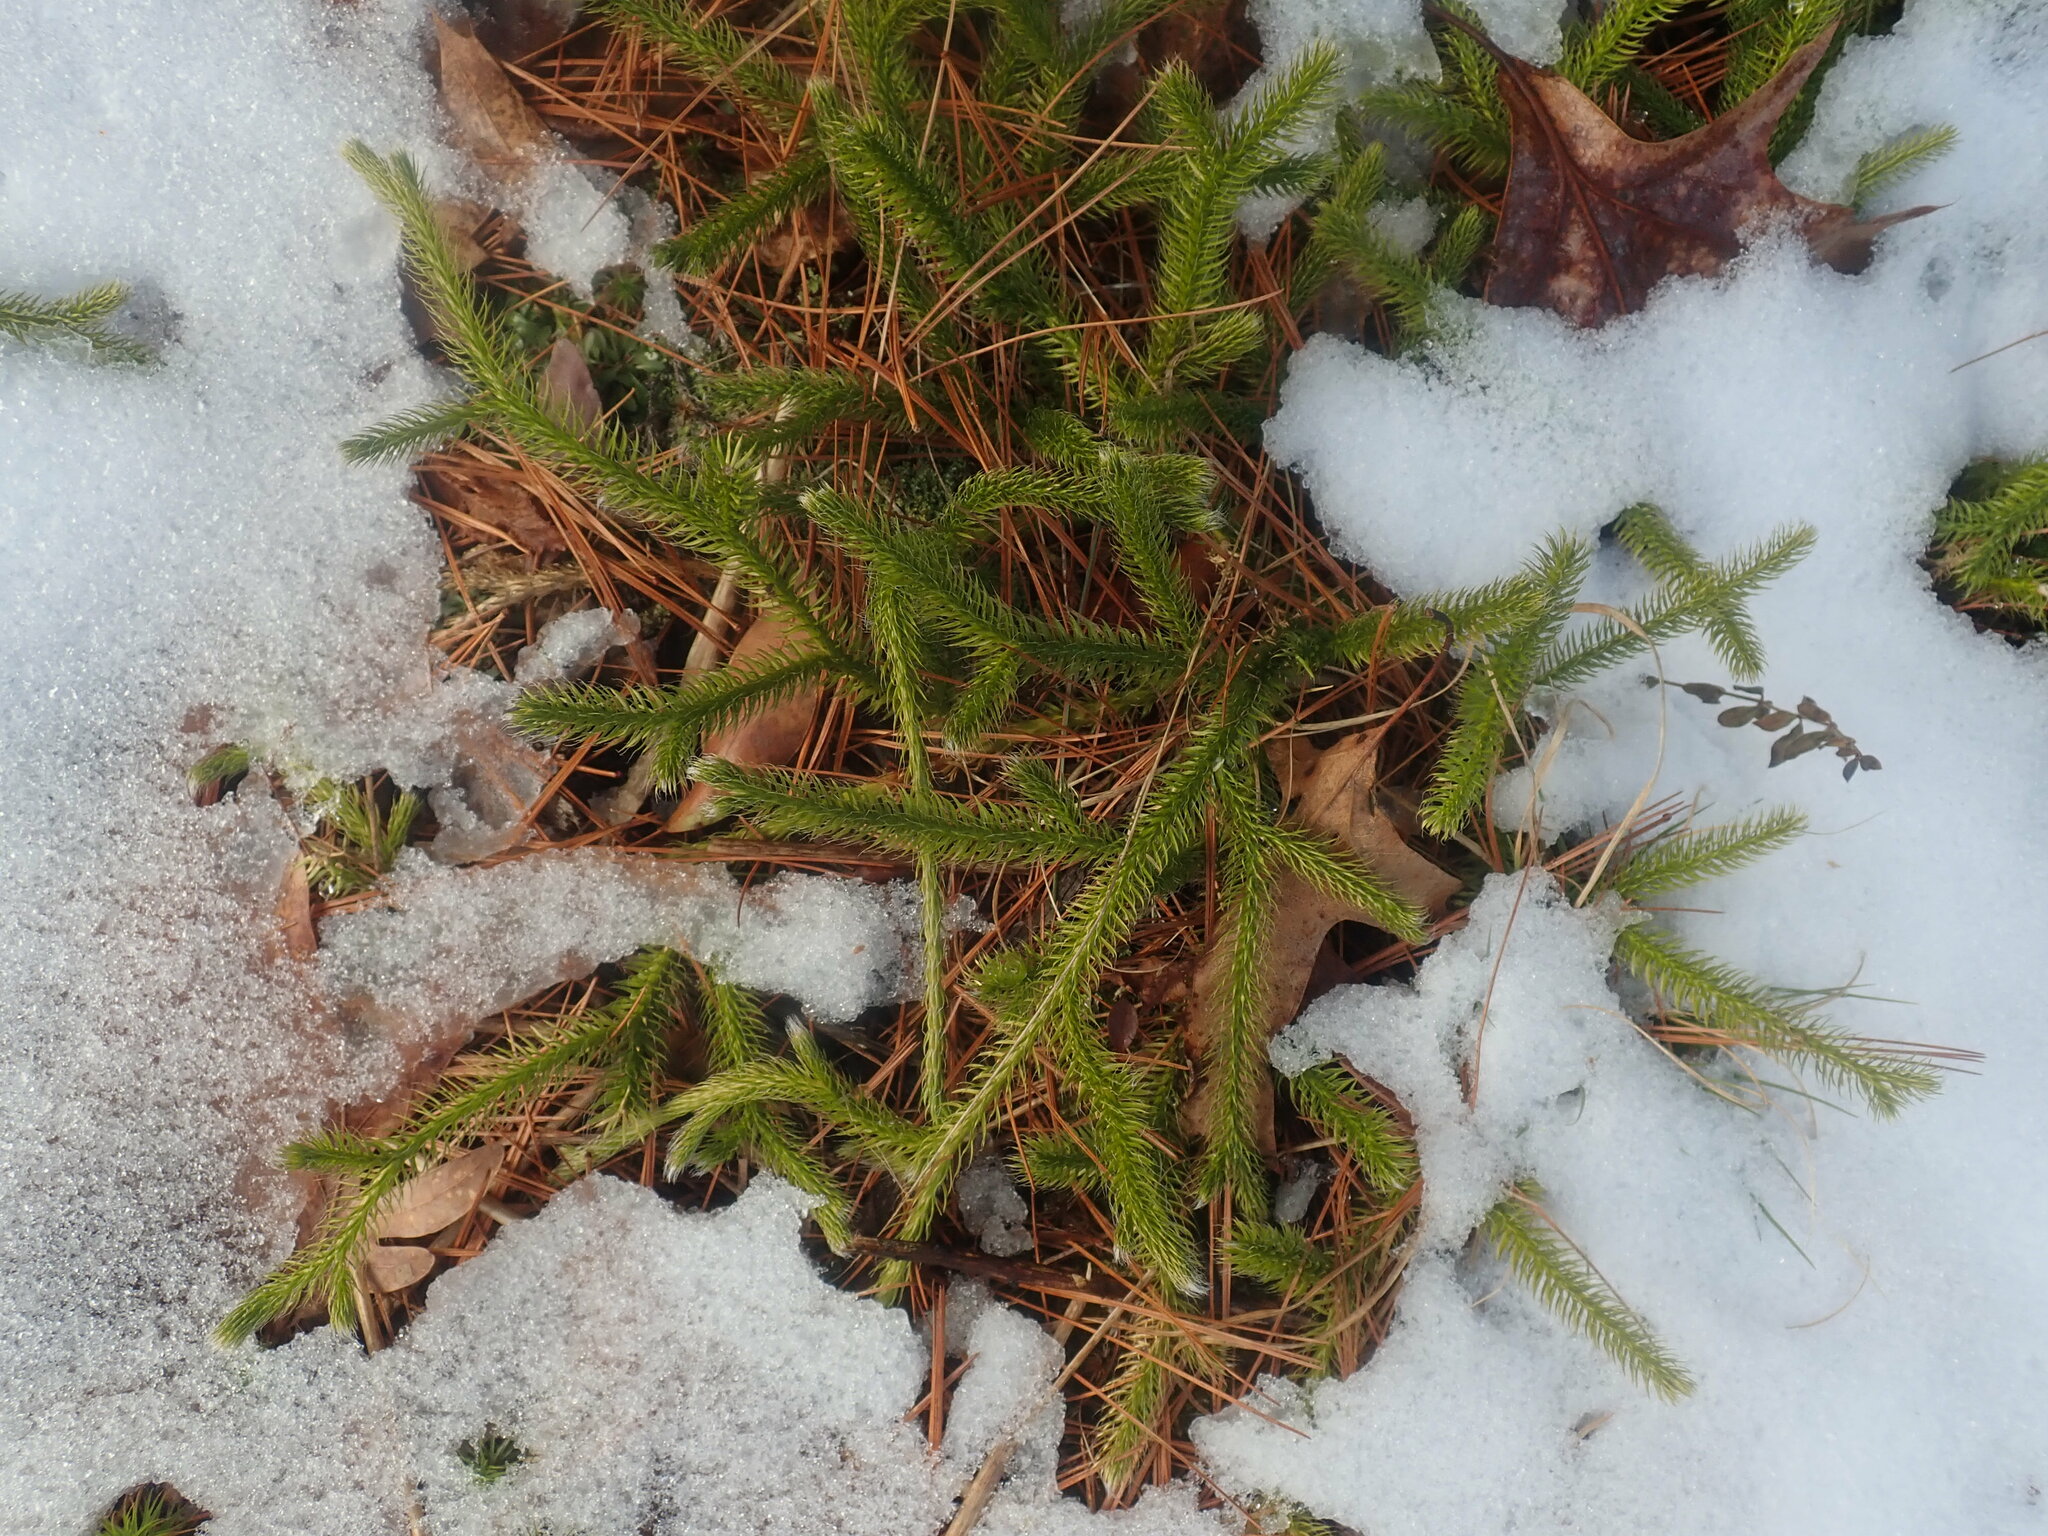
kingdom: Plantae
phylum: Tracheophyta
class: Lycopodiopsida
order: Lycopodiales
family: Lycopodiaceae
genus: Lycopodium
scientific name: Lycopodium clavatum
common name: Stag's-horn clubmoss
